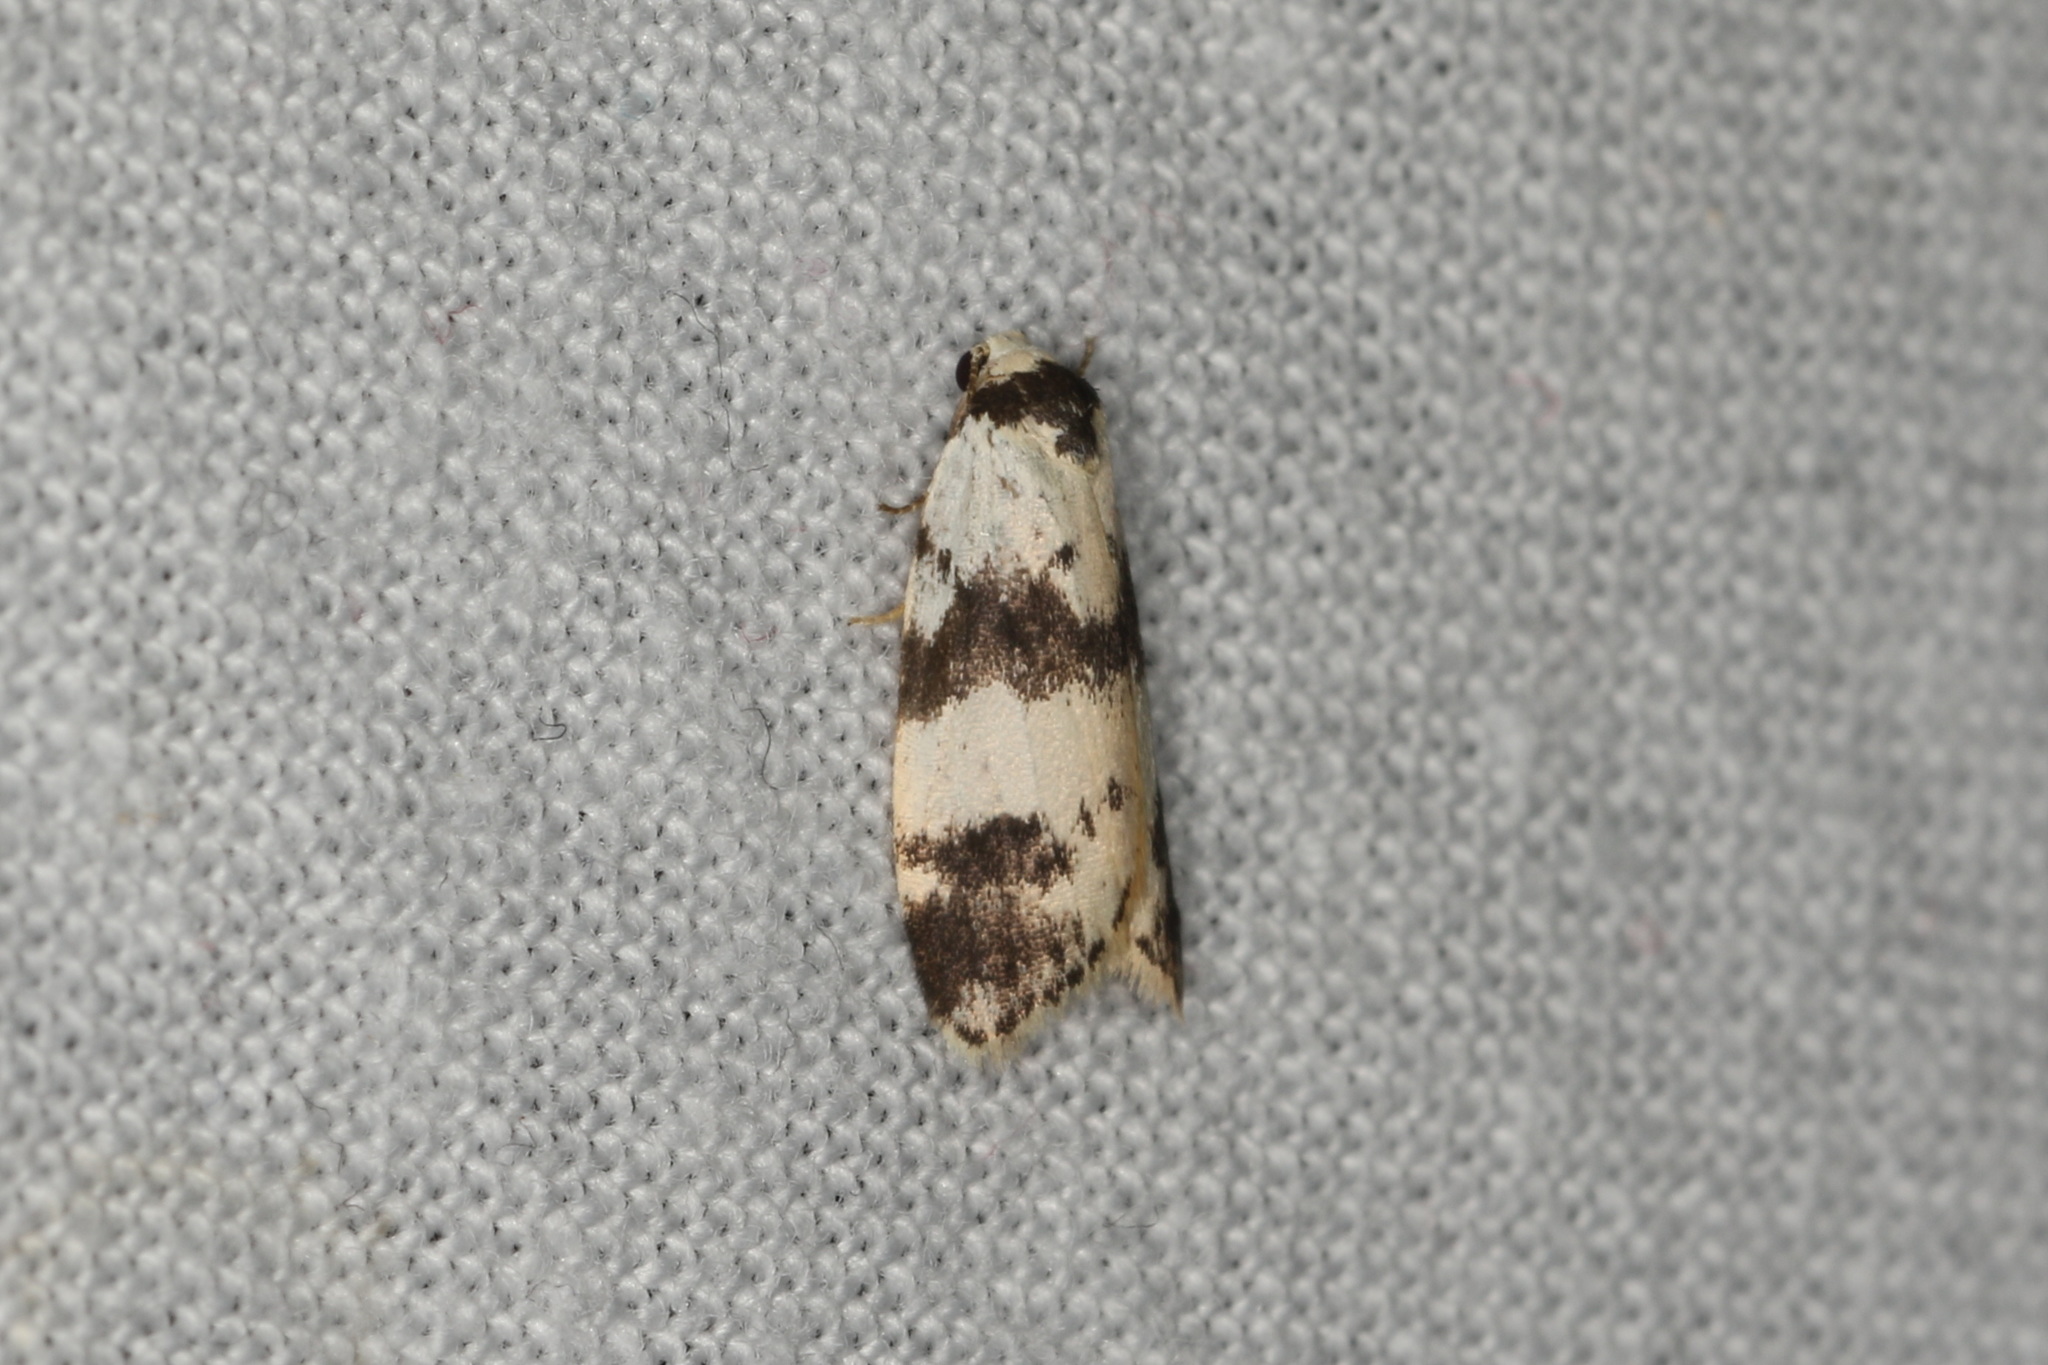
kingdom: Animalia
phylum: Arthropoda
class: Insecta
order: Lepidoptera
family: Erebidae
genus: Thallarcha
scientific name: Thallarcha sparsana
